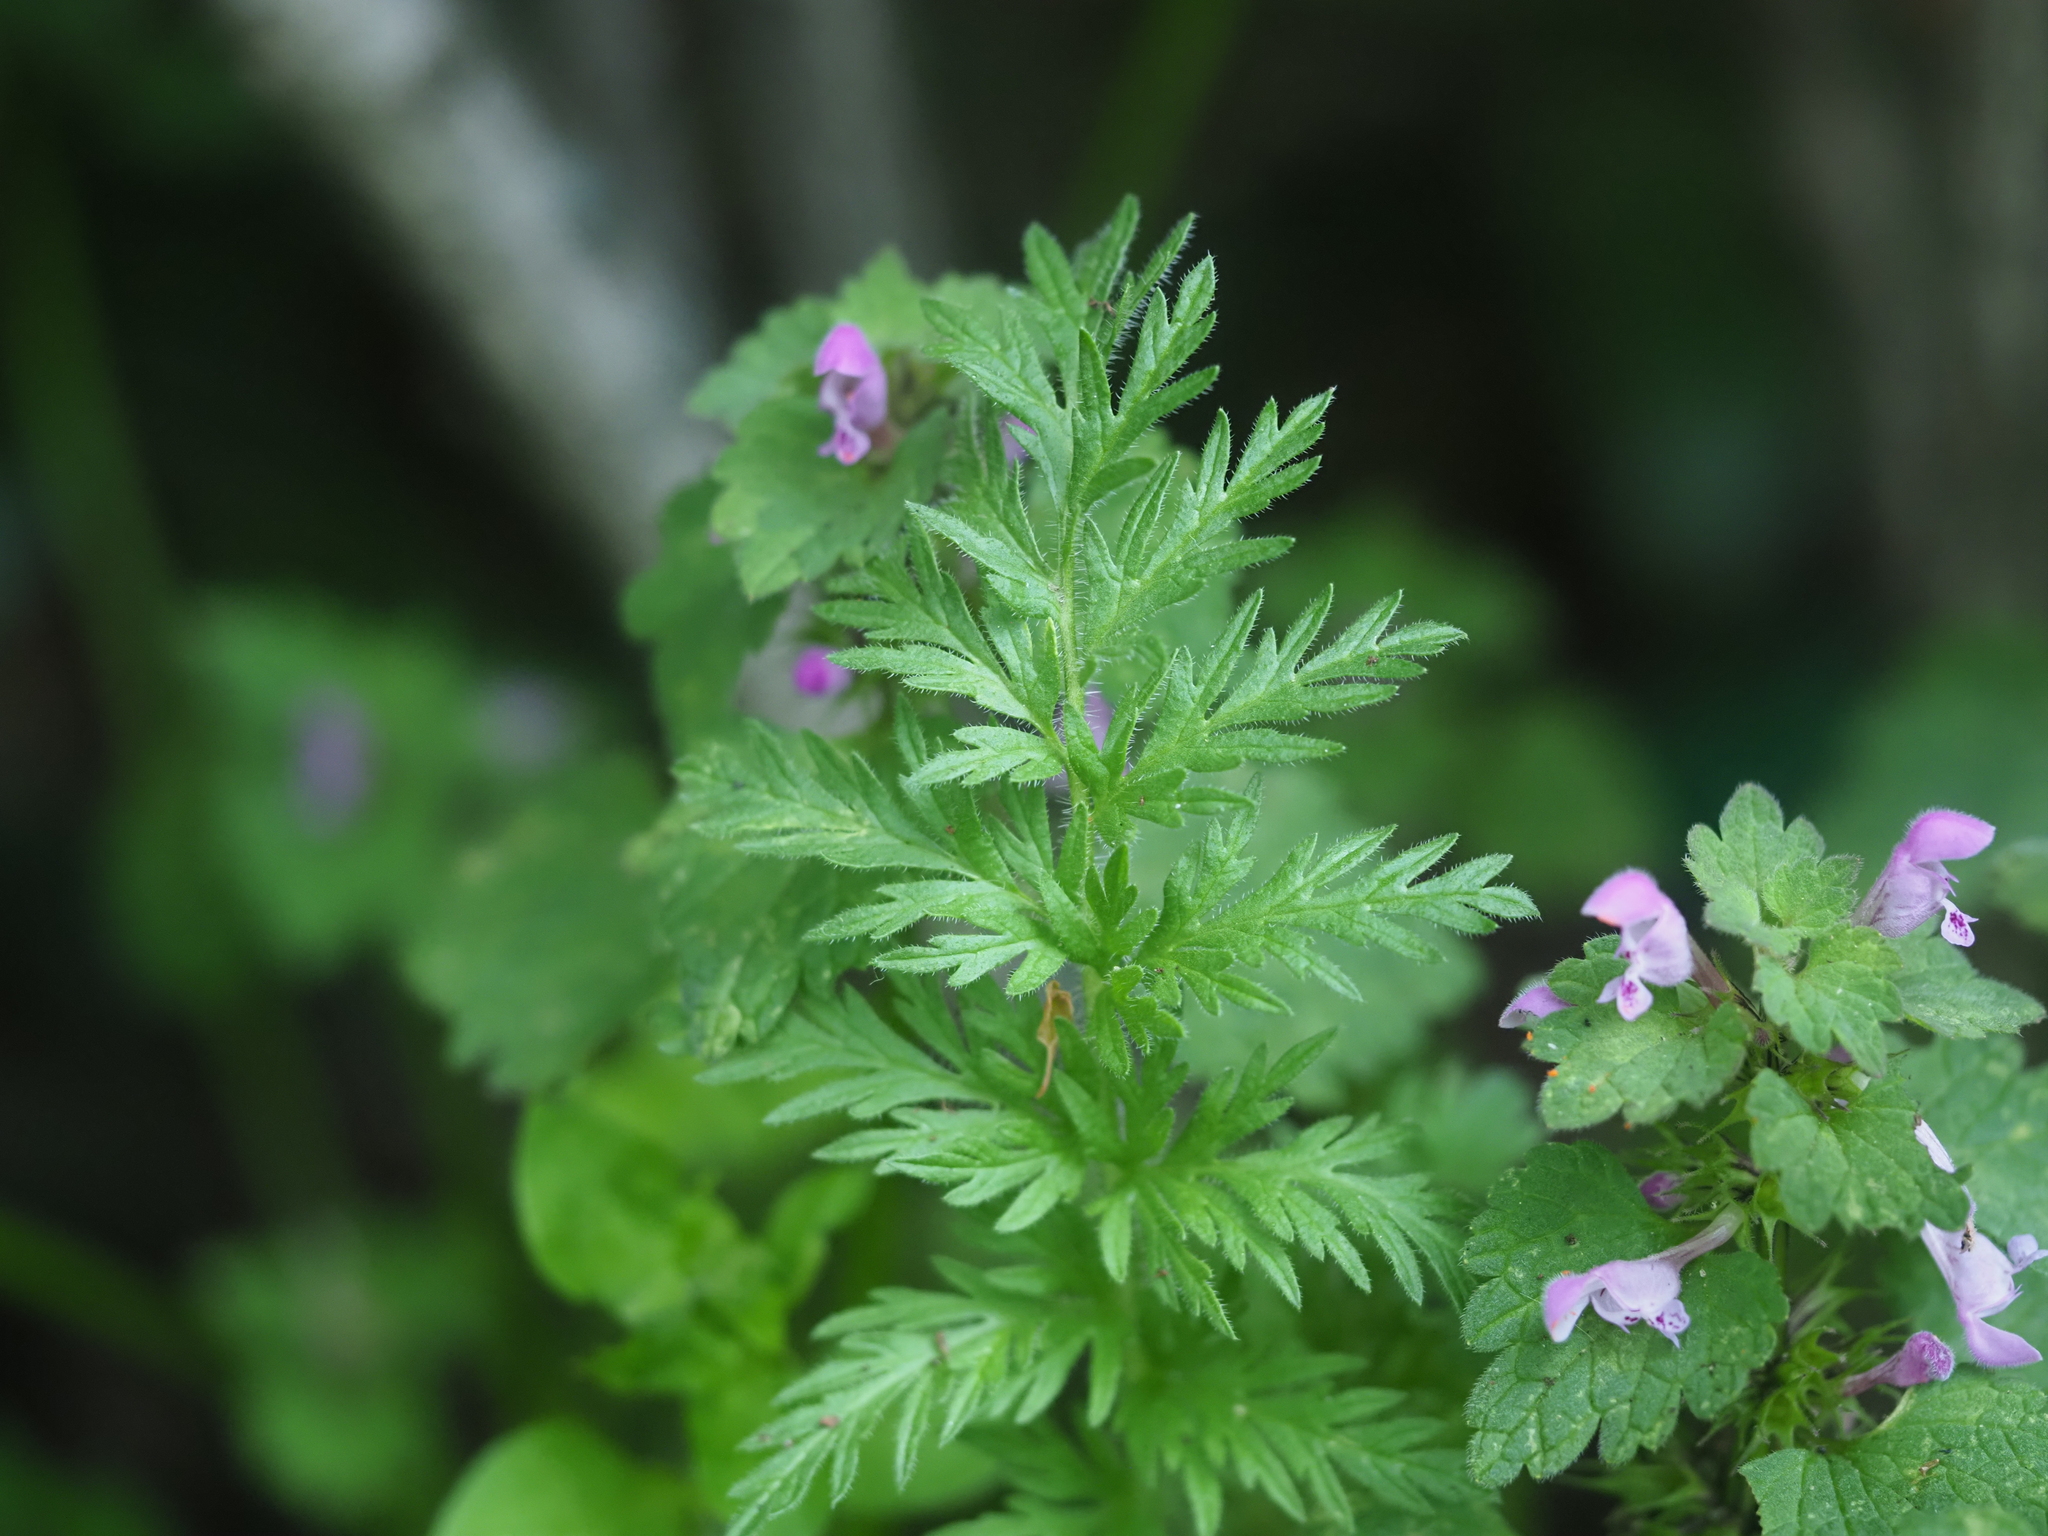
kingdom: Plantae
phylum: Tracheophyta
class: Magnoliopsida
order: Geraniales
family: Geraniaceae
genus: Erodium
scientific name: Erodium cicutarium
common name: Common stork's-bill
